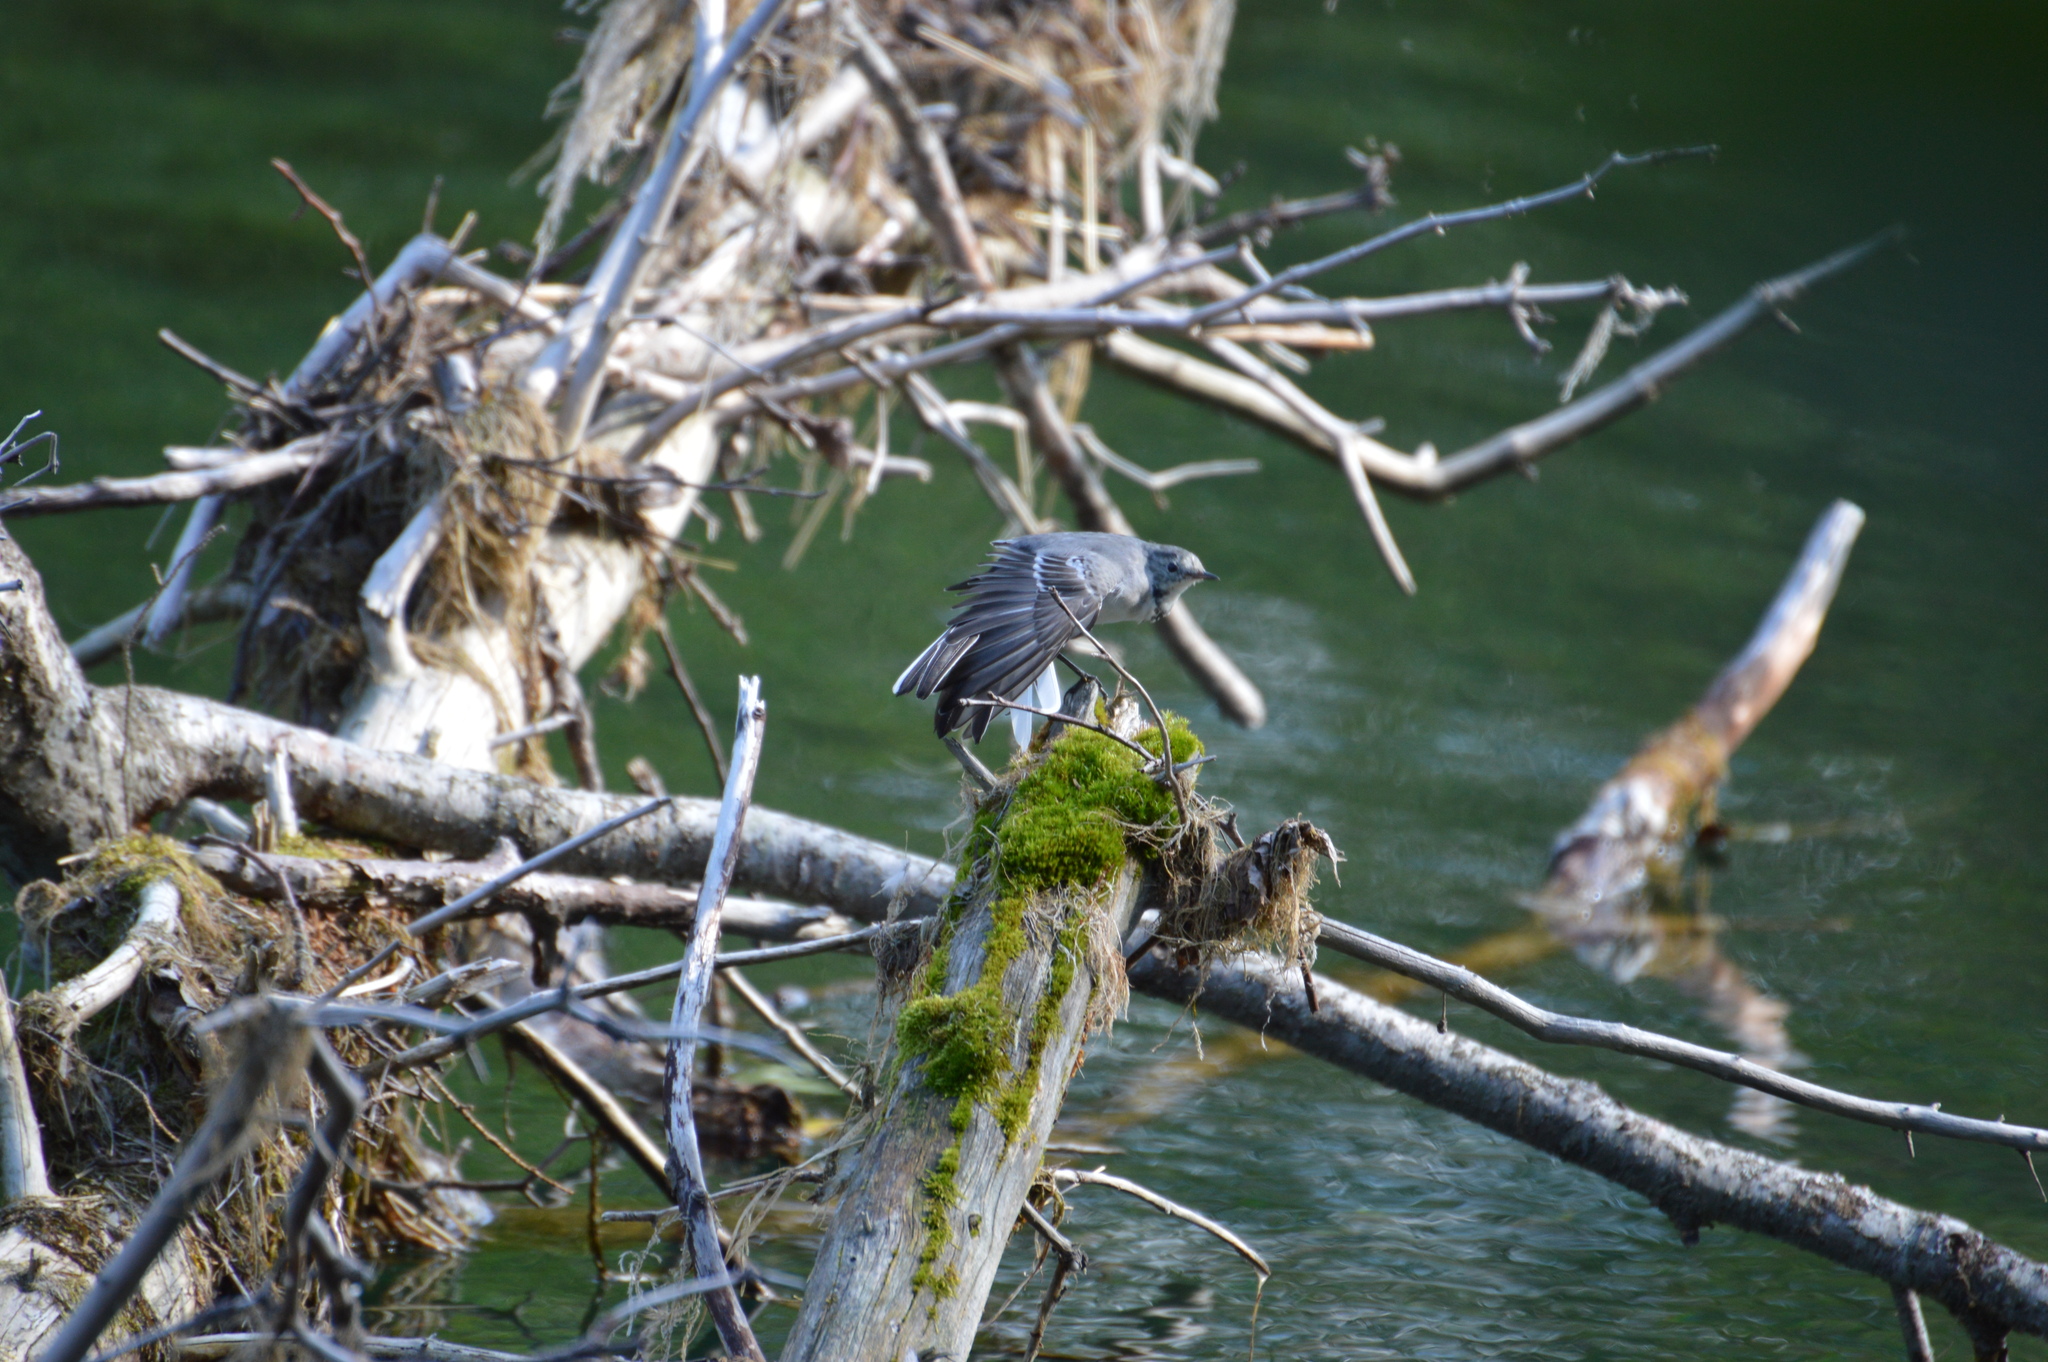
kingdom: Animalia
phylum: Chordata
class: Aves
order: Passeriformes
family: Motacillidae
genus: Motacilla
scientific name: Motacilla alba
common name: White wagtail
